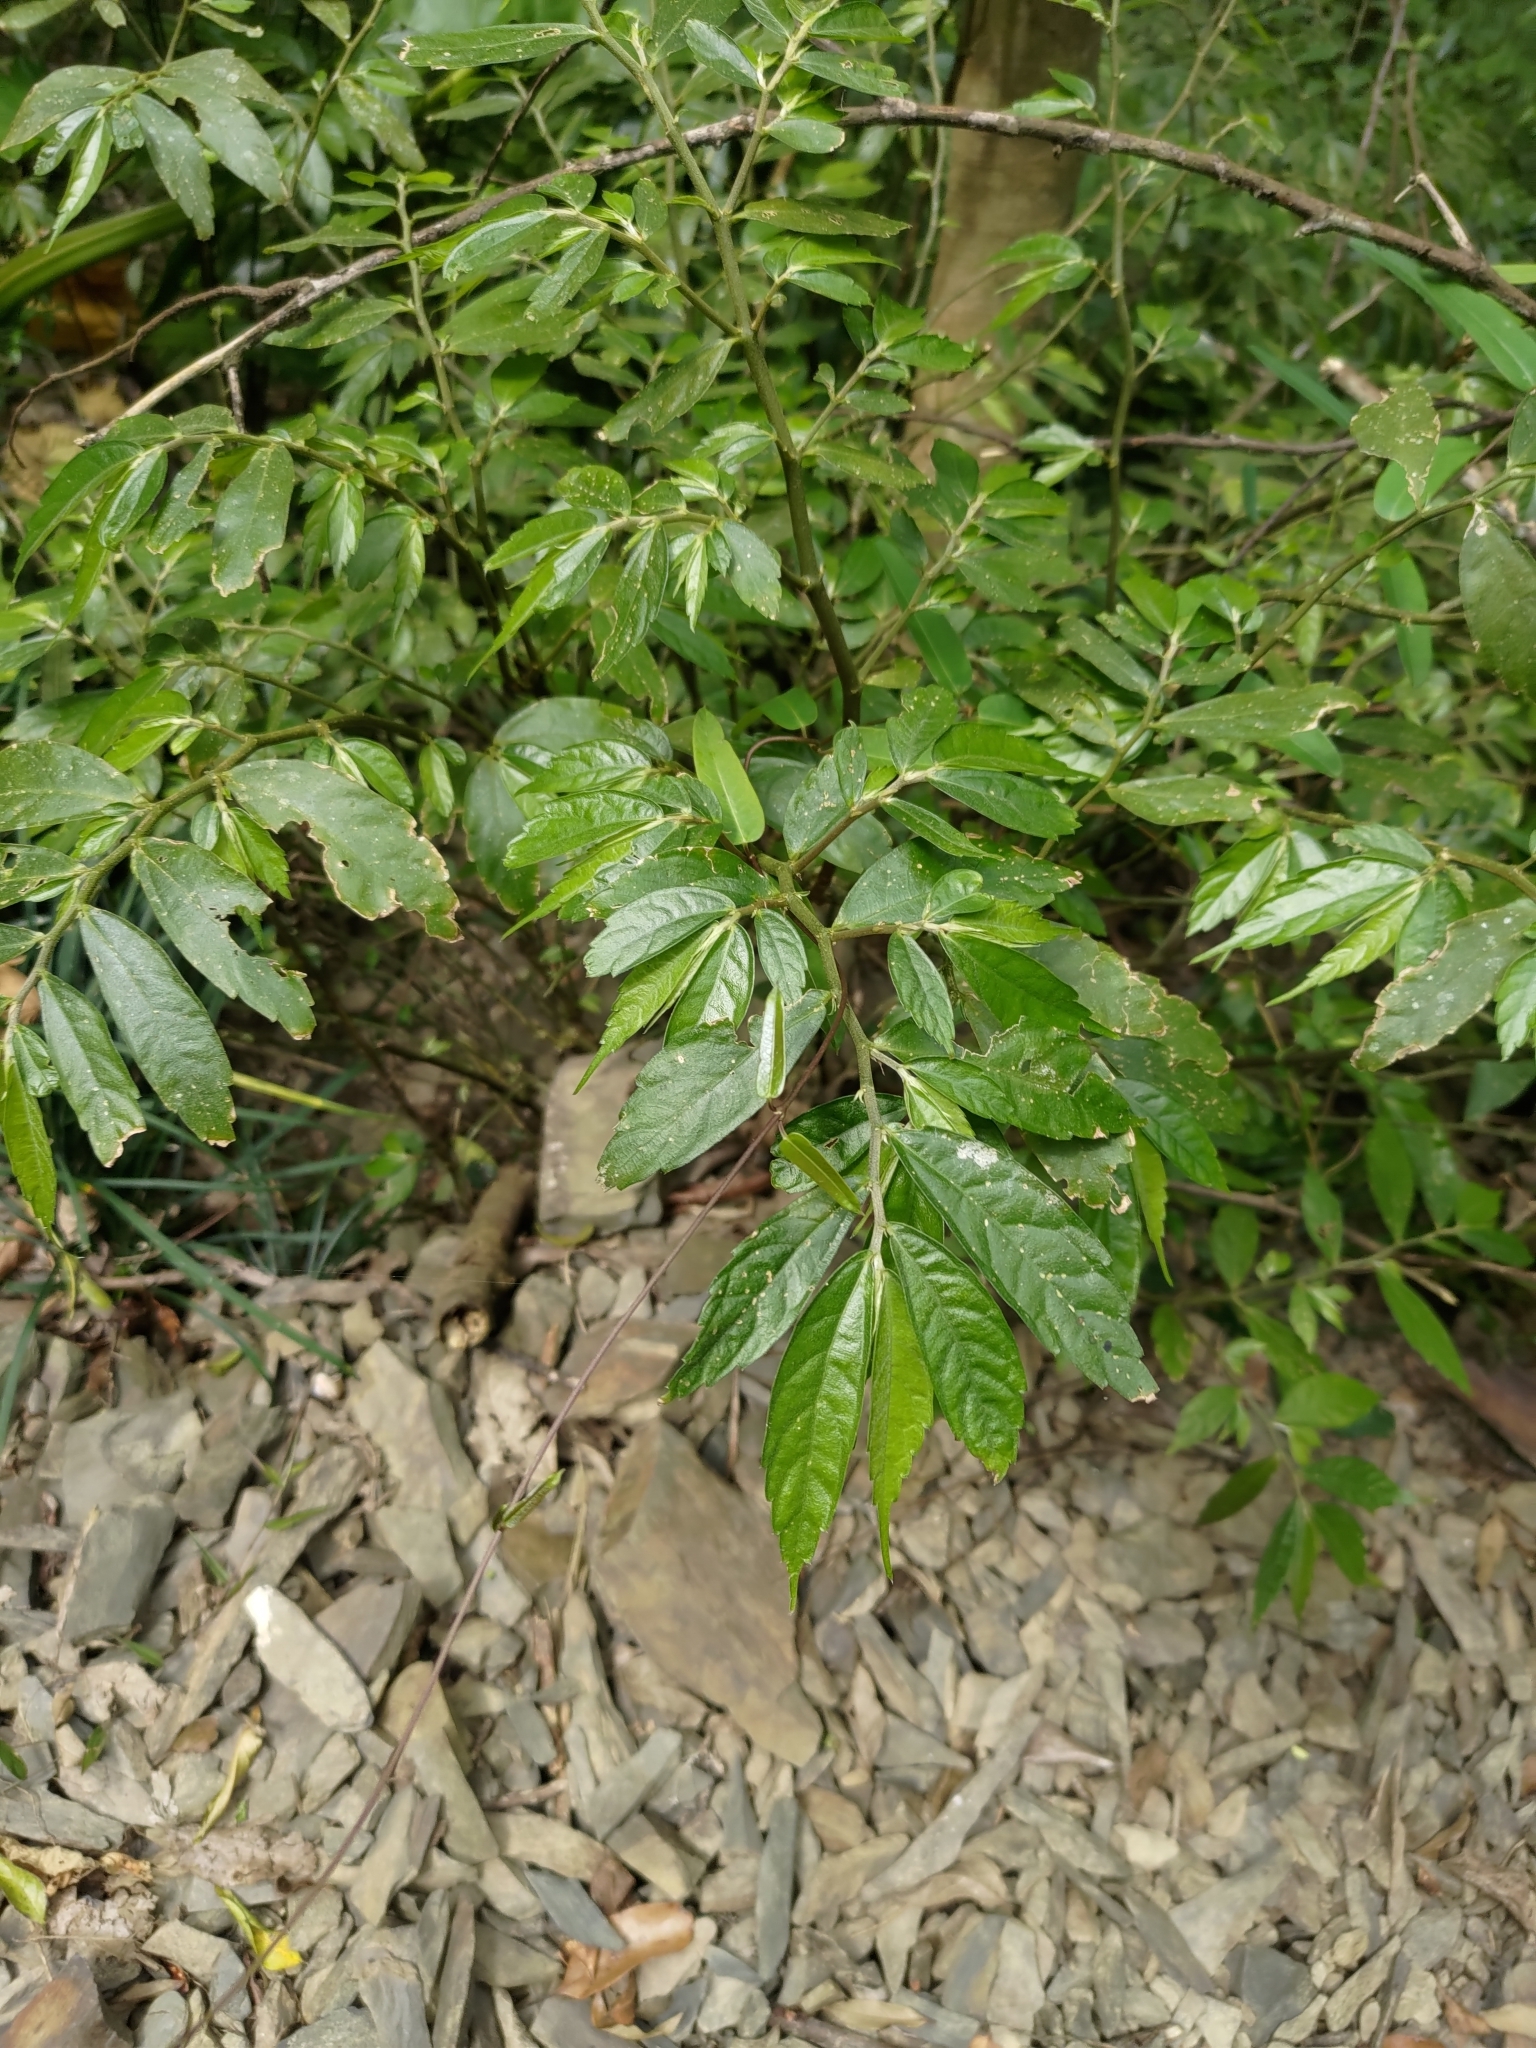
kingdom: Plantae
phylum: Tracheophyta
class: Magnoliopsida
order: Rosales
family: Urticaceae
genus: Elatostema
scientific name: Elatostema lineolatum
